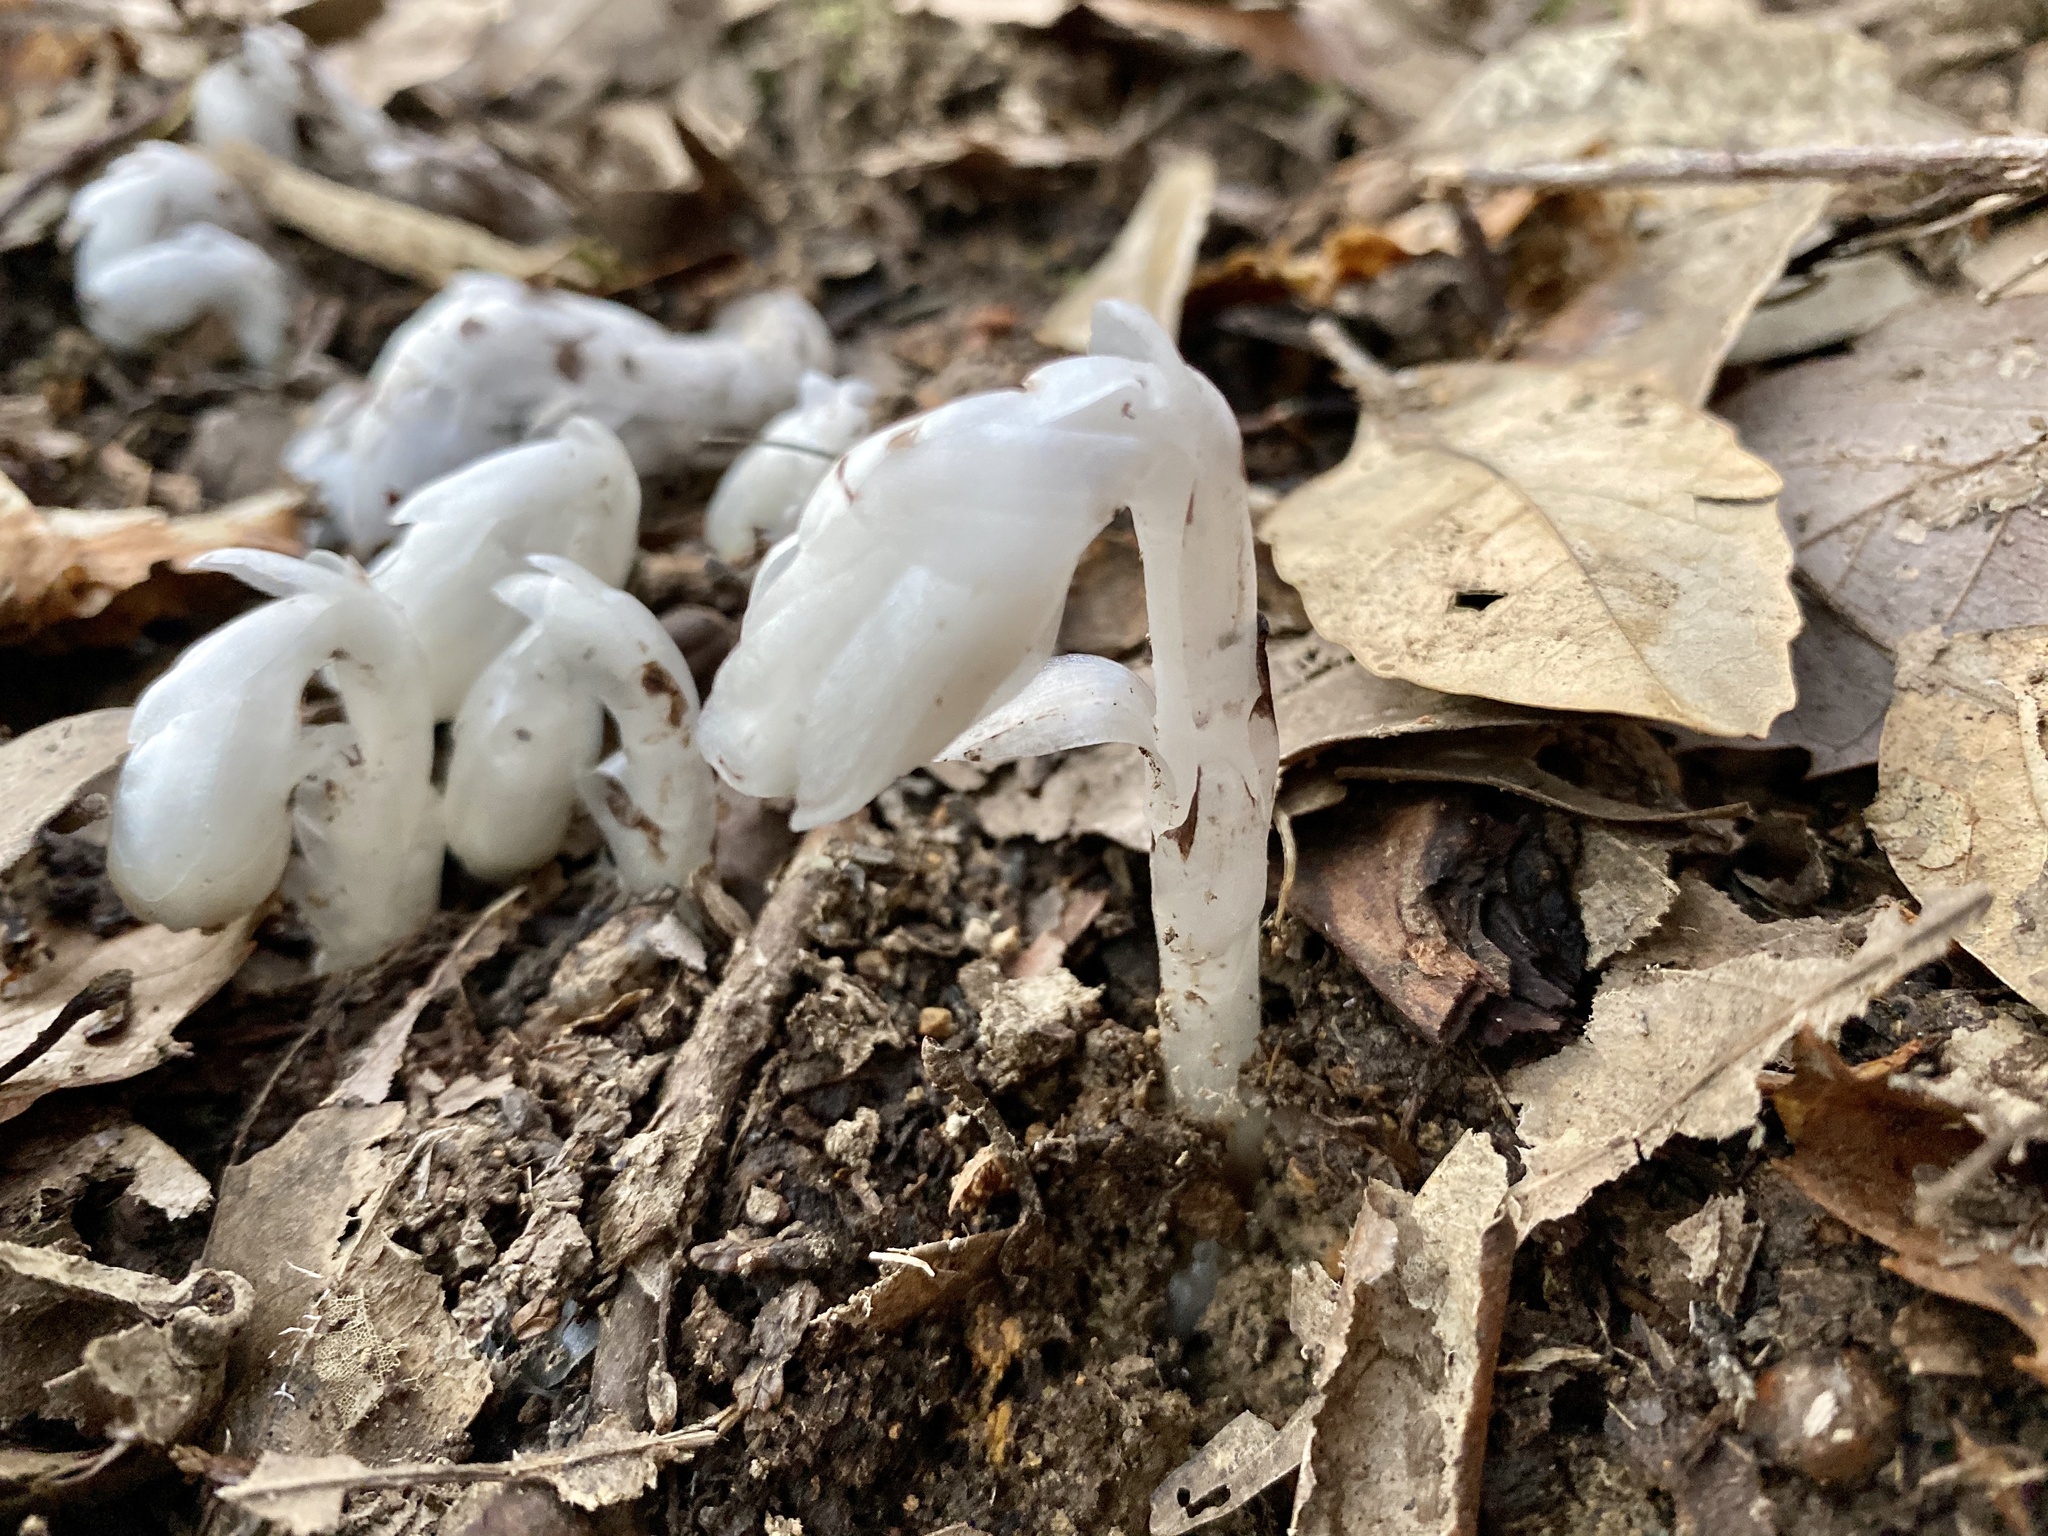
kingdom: Plantae
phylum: Tracheophyta
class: Magnoliopsida
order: Ericales
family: Ericaceae
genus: Monotropastrum
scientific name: Monotropastrum humile
